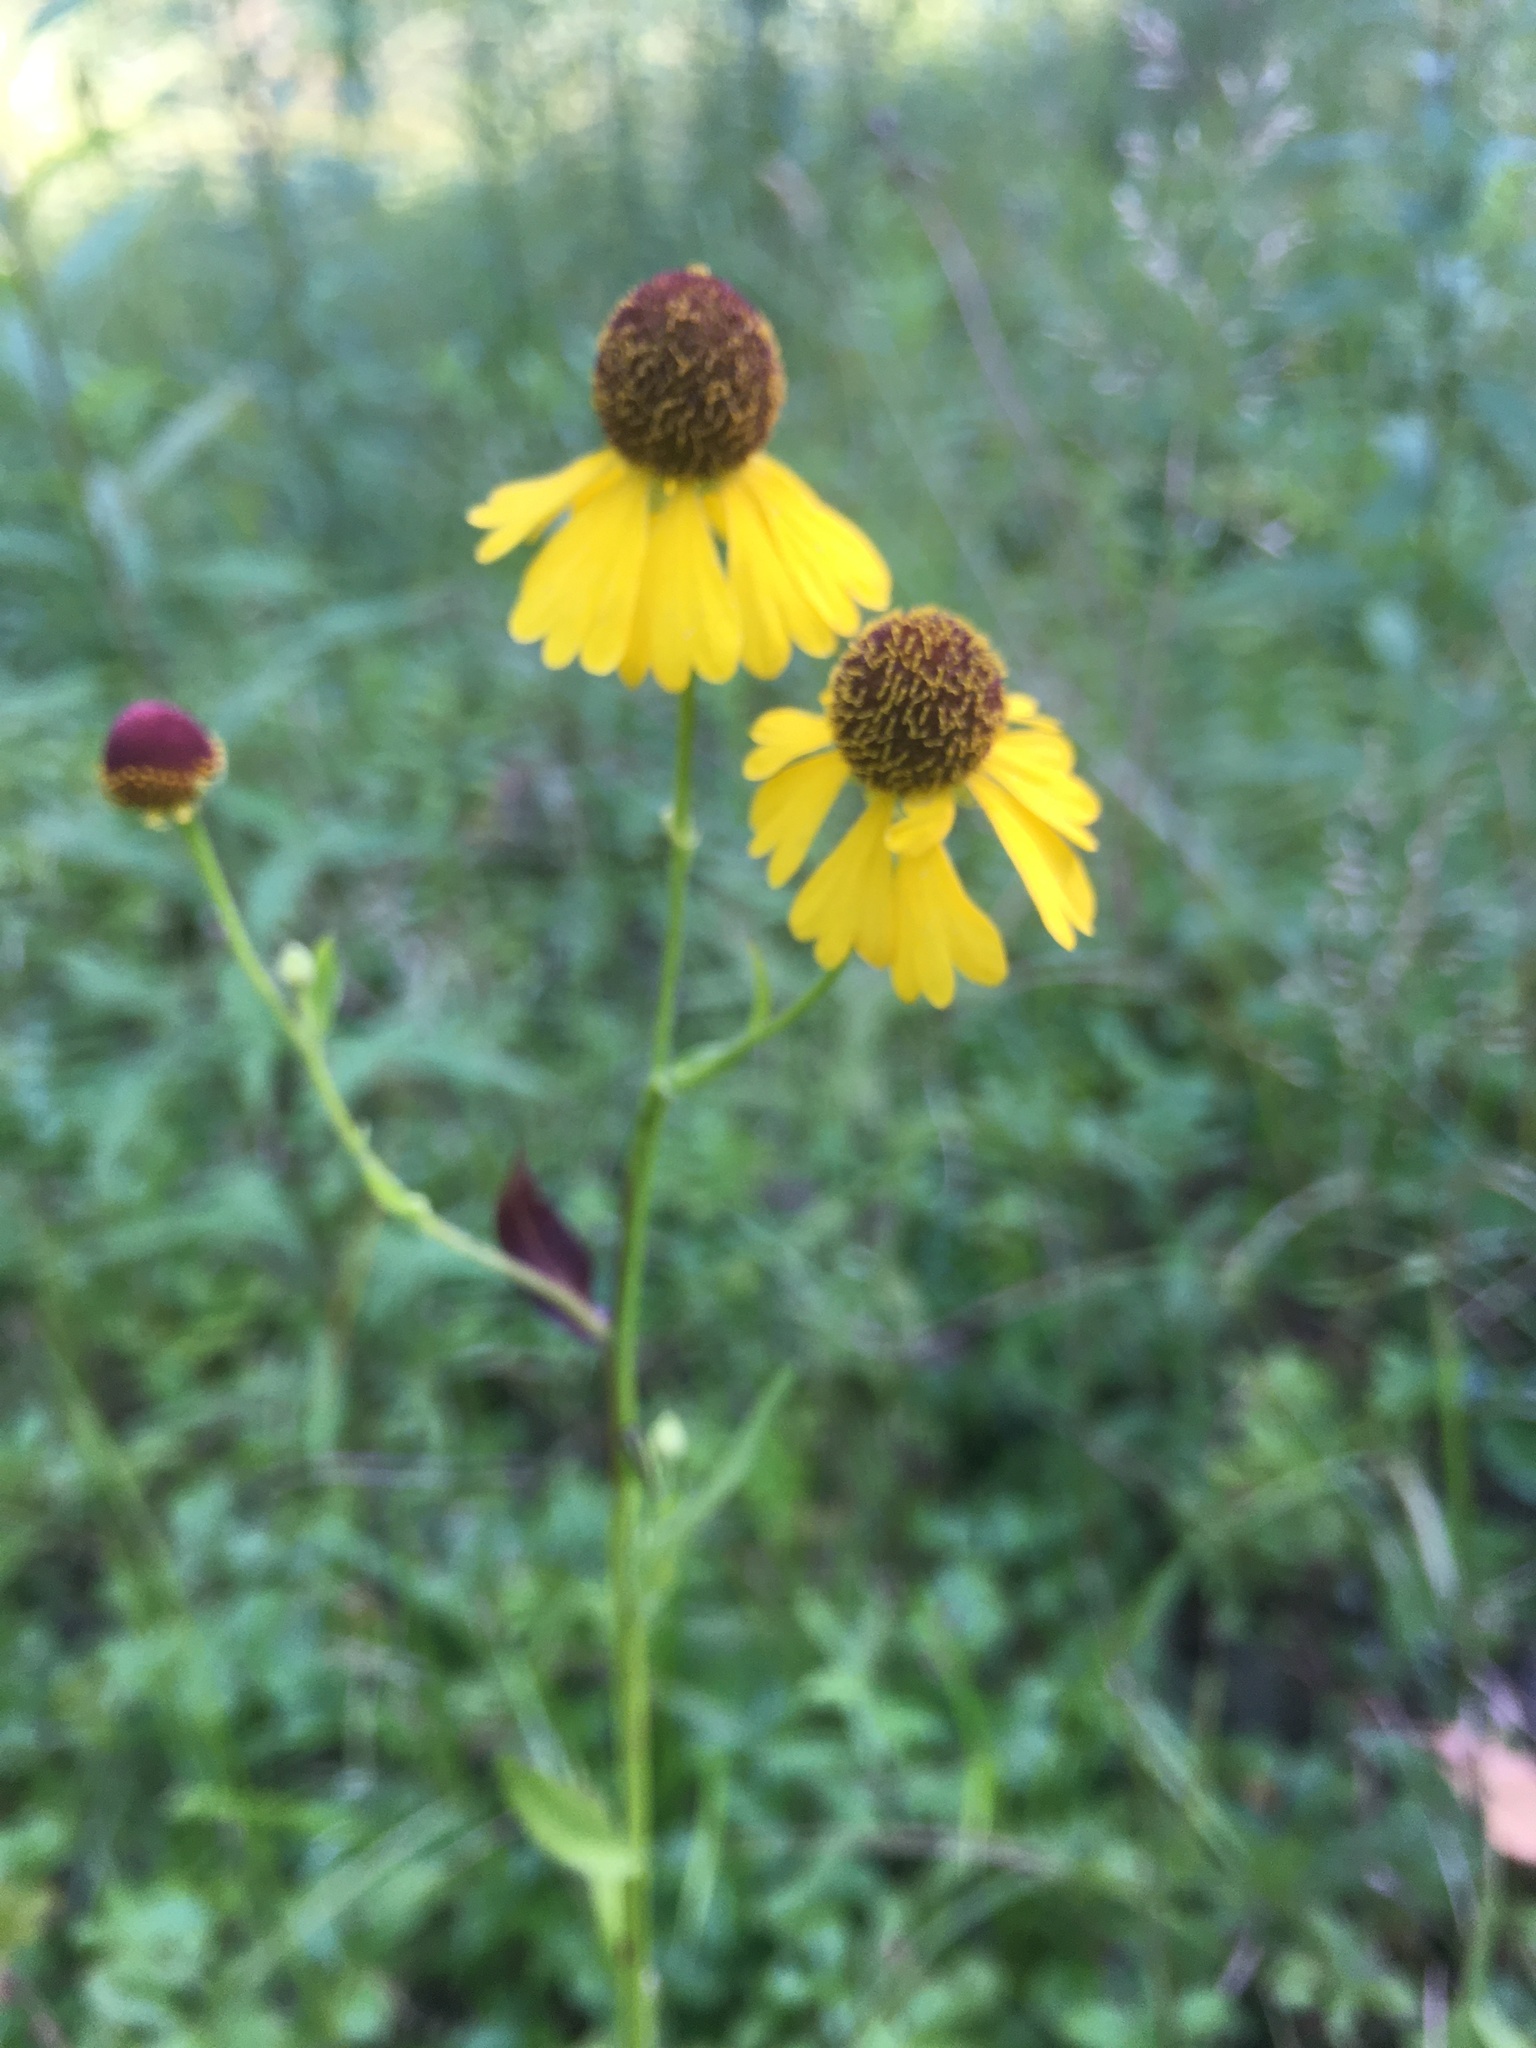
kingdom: Plantae
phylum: Tracheophyta
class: Magnoliopsida
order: Asterales
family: Asteraceae
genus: Helenium
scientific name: Helenium flexuosum
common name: Naked-flowered sneezeweed
